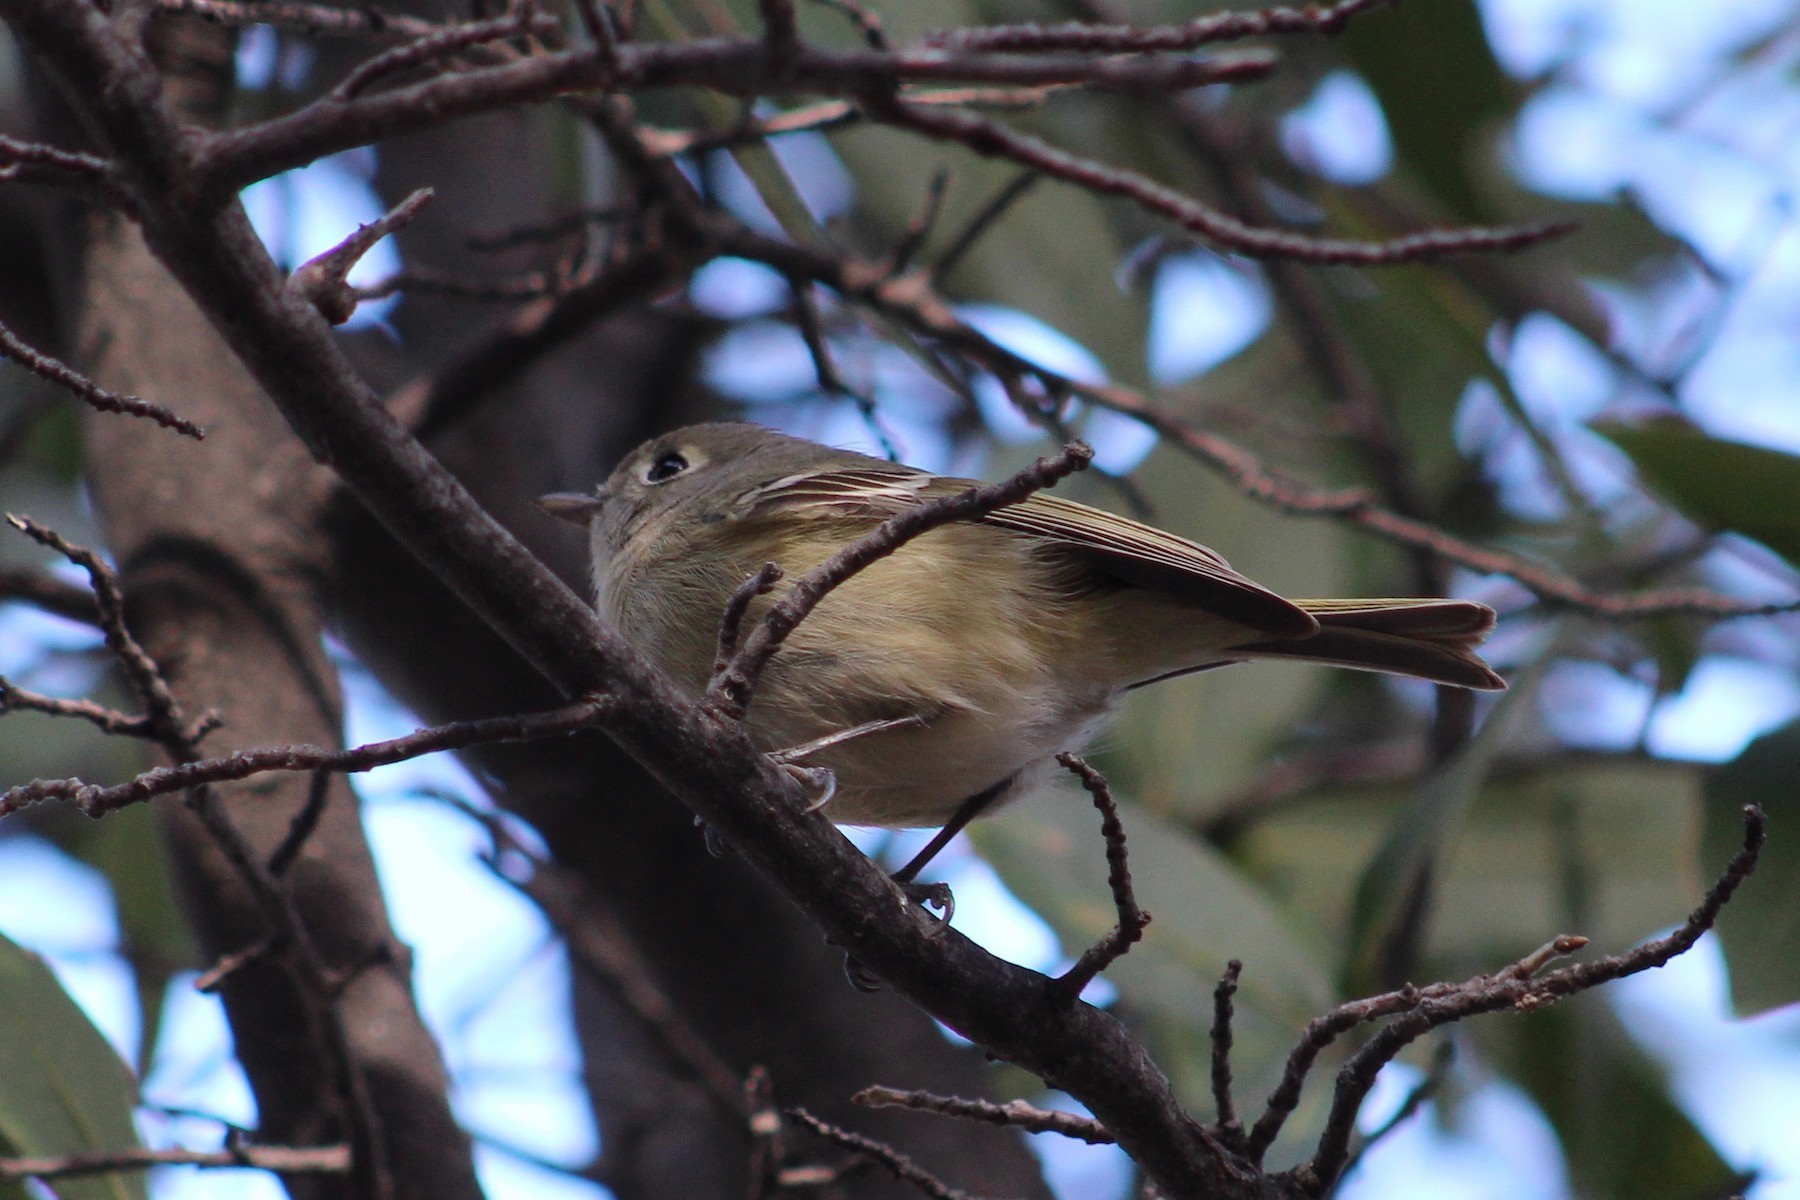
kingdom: Animalia
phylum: Chordata
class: Aves
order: Passeriformes
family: Vireonidae
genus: Vireo
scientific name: Vireo huttoni
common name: Hutton's vireo
